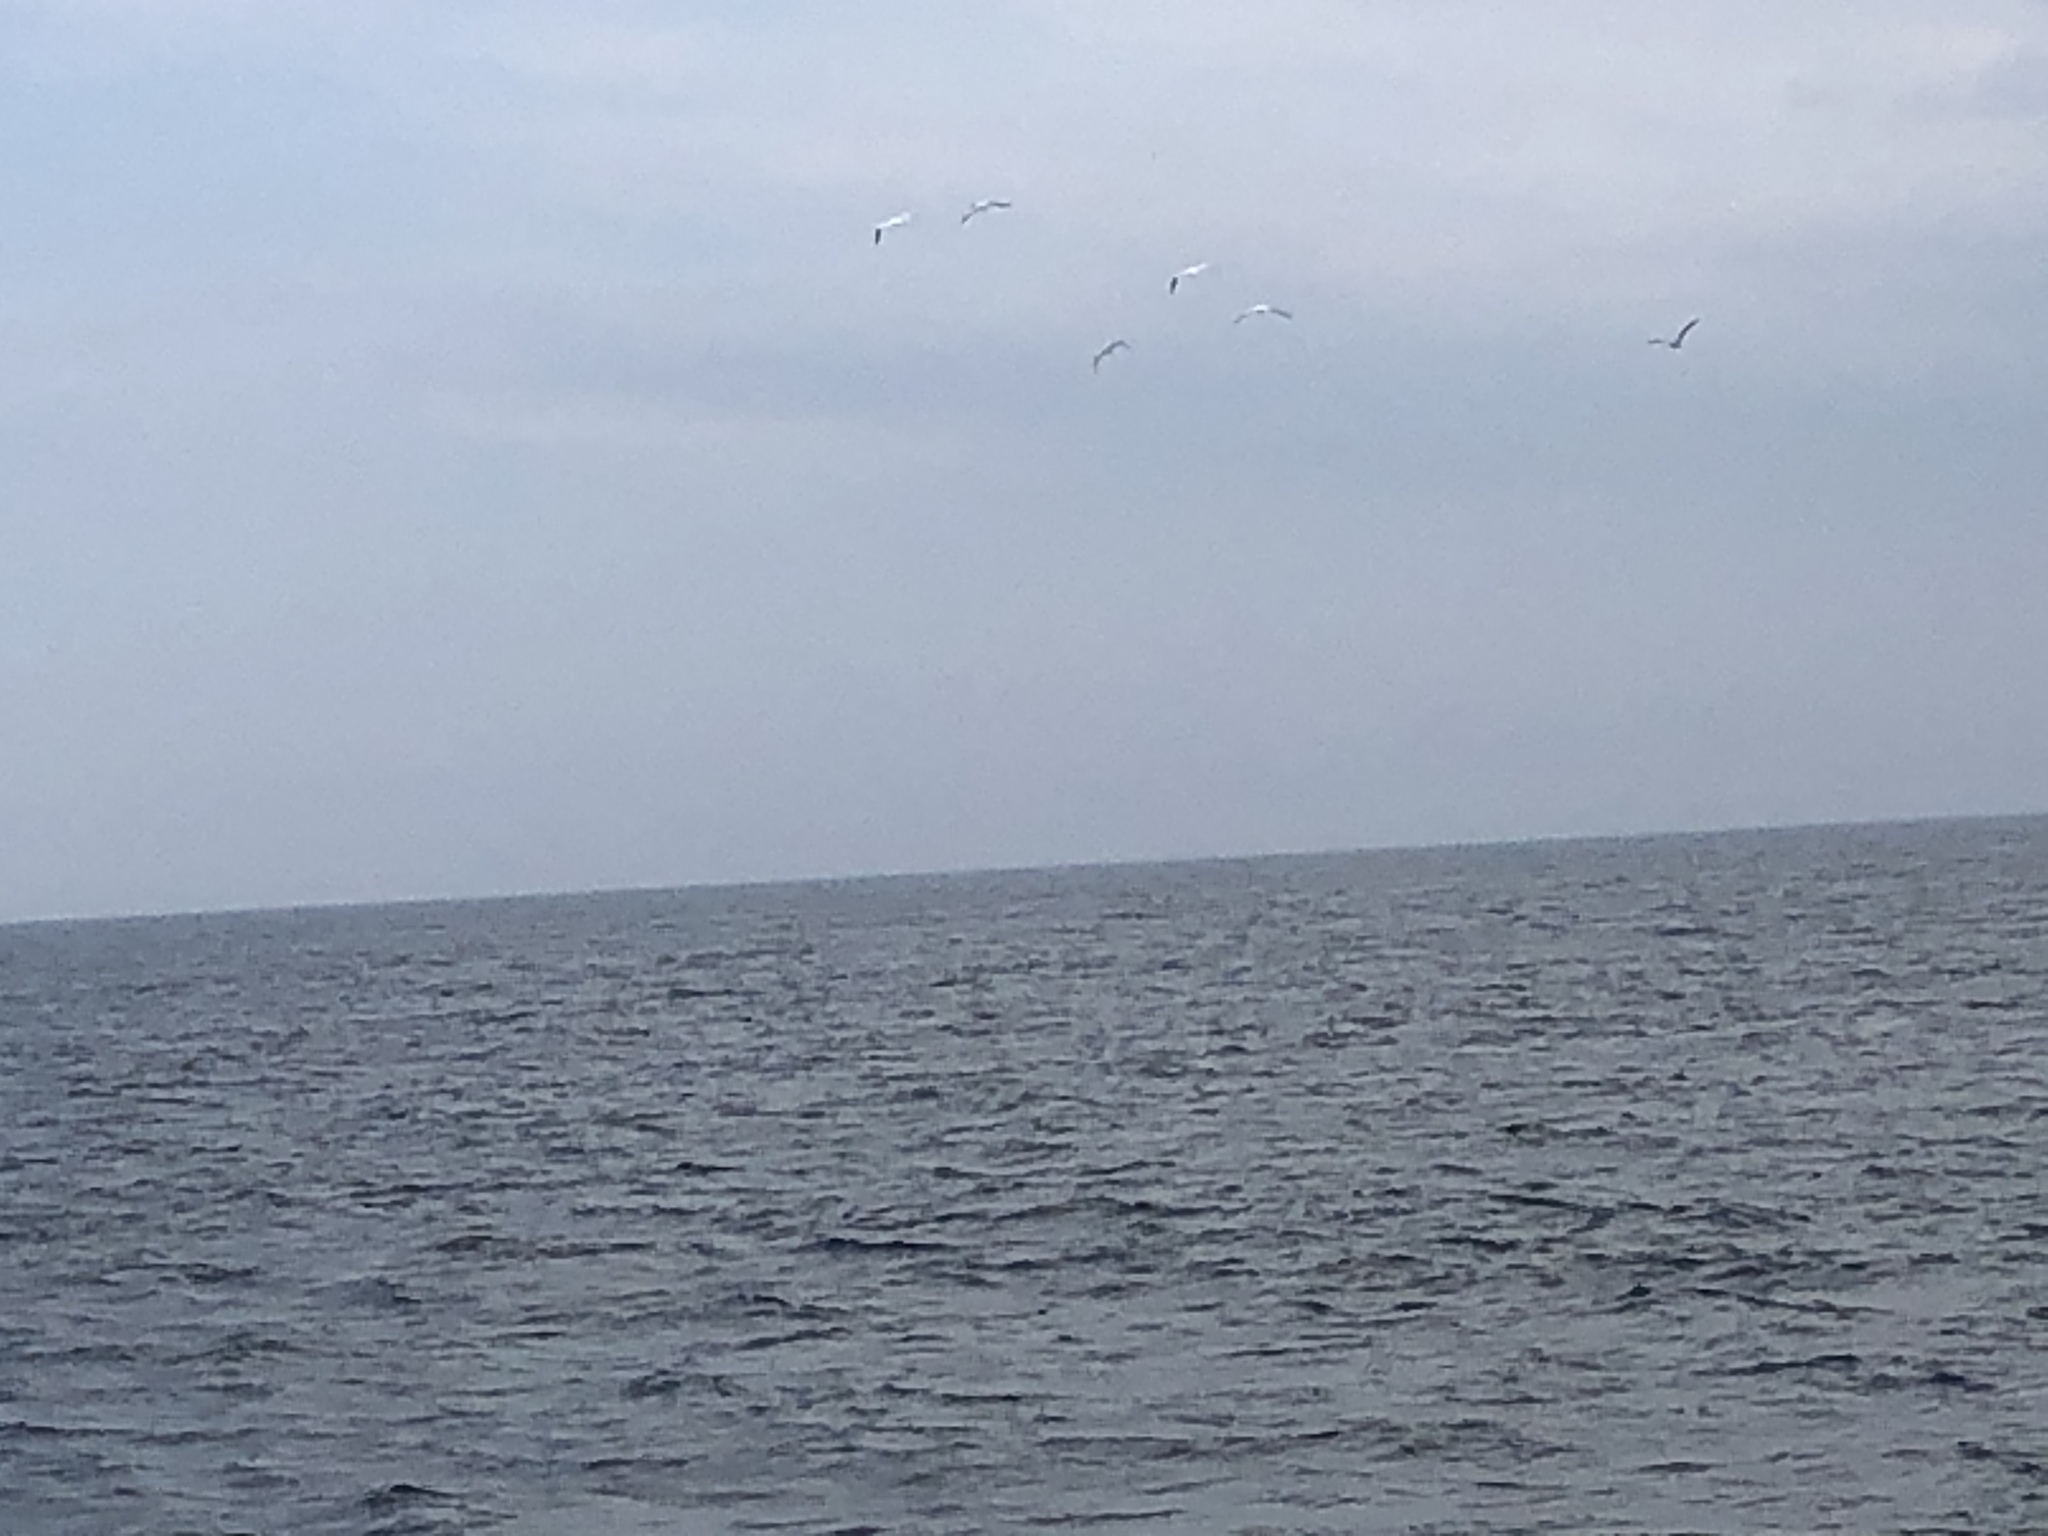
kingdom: Animalia
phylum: Chordata
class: Aves
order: Suliformes
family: Sulidae
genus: Morus
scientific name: Morus bassanus
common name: Northern gannet
